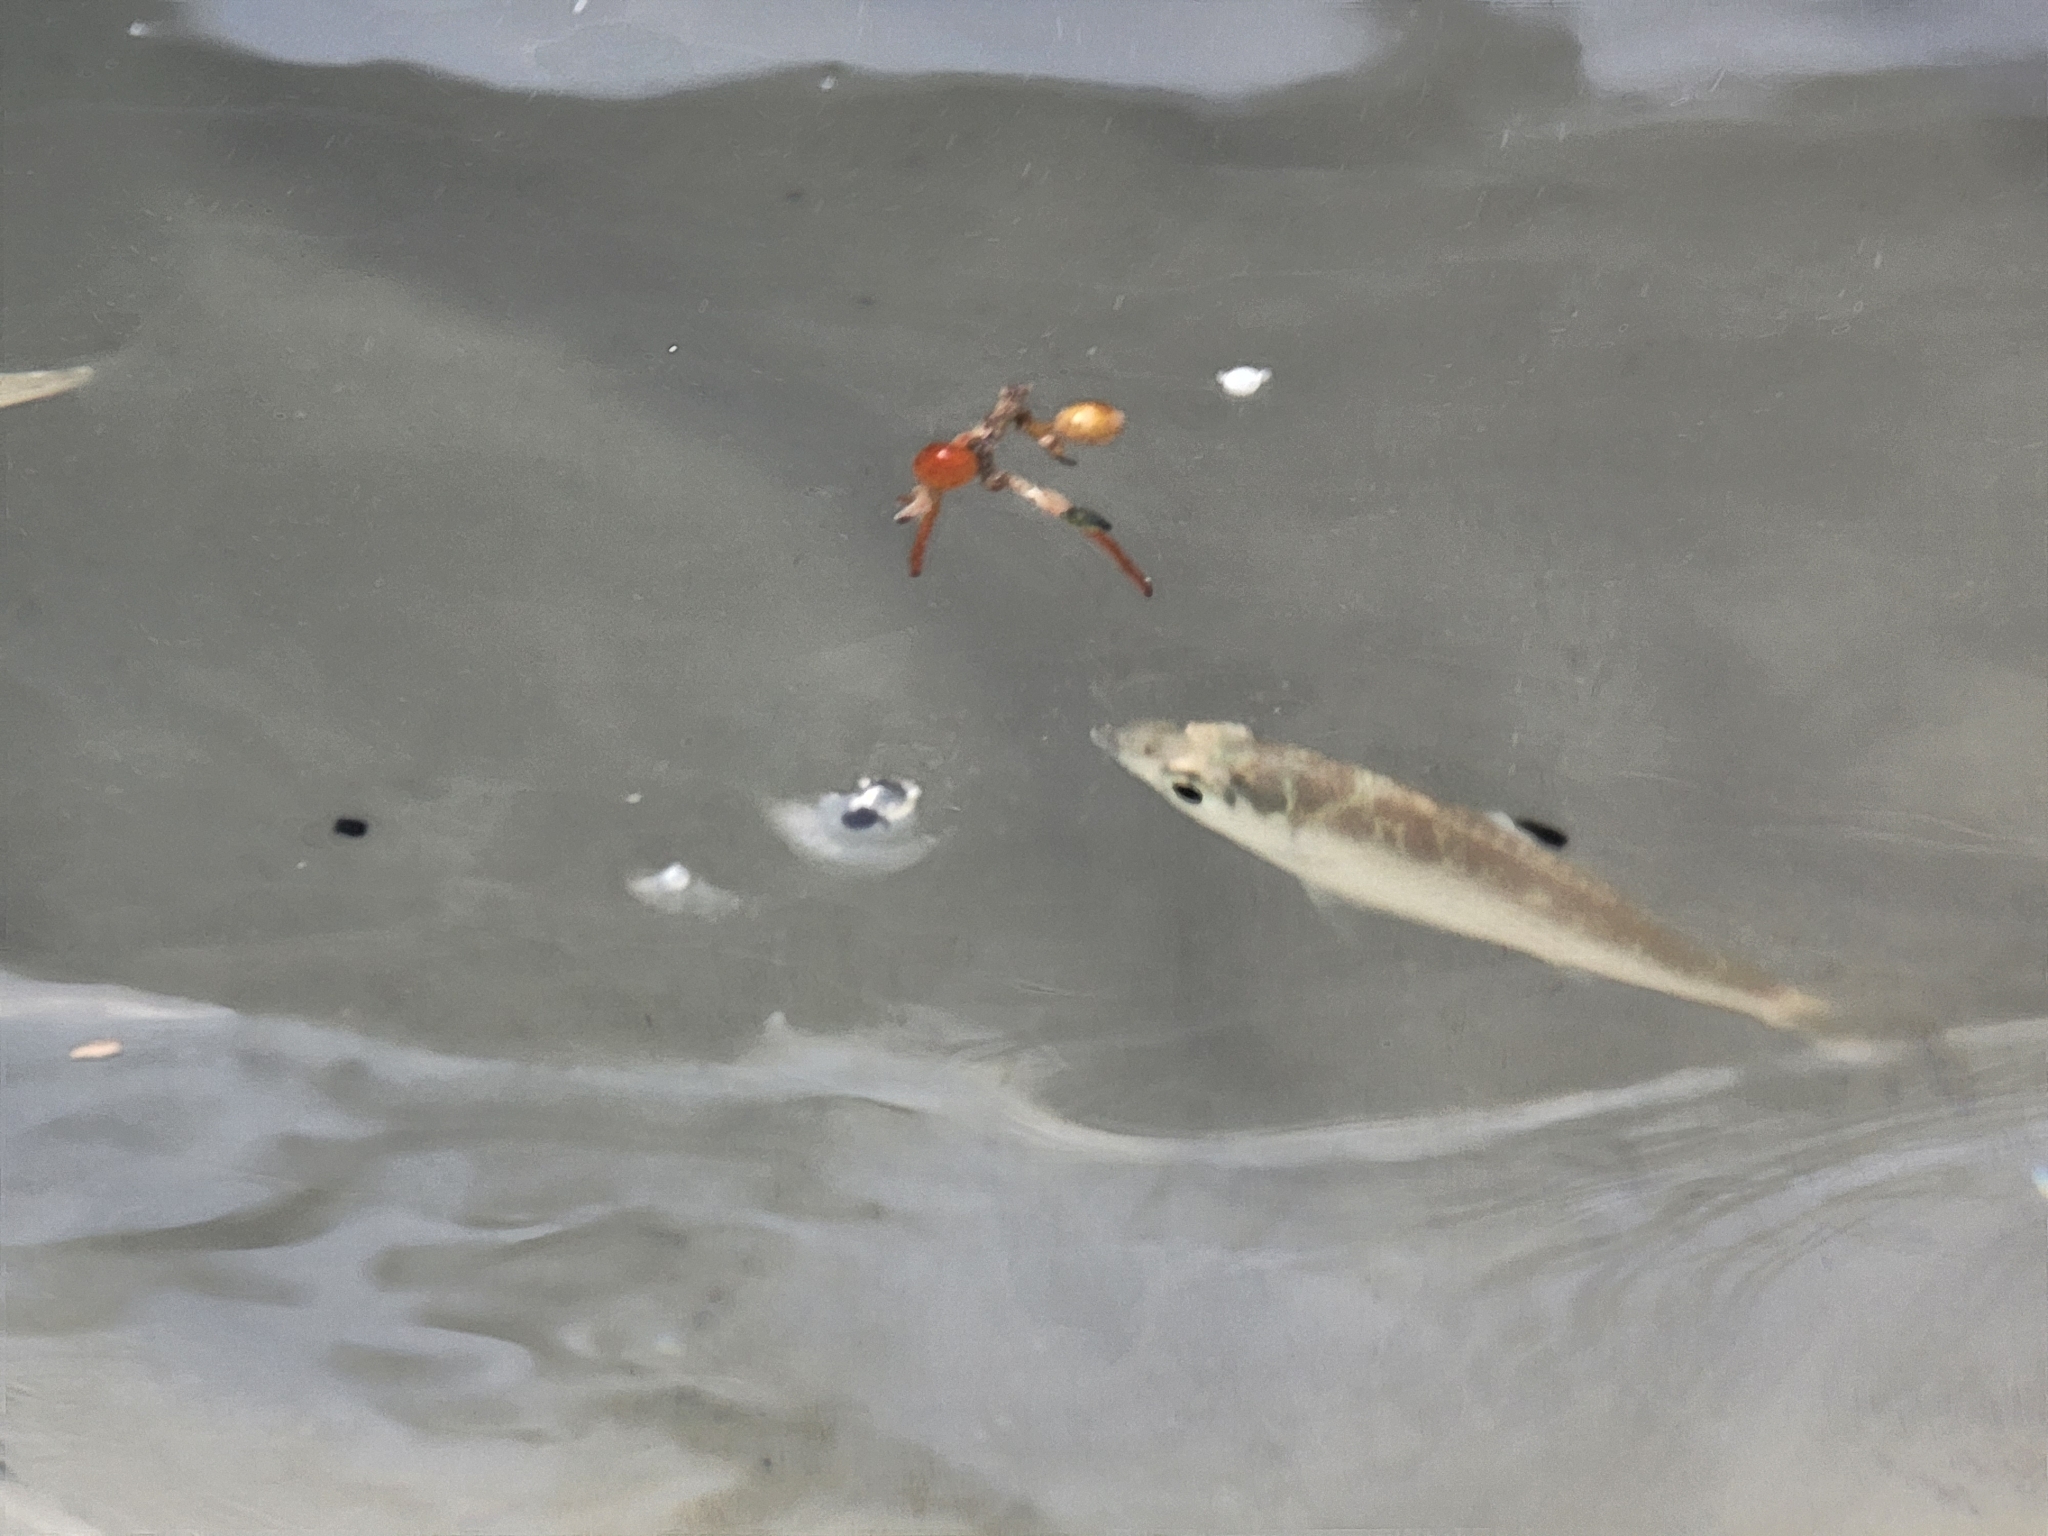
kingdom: Animalia
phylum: Chordata
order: Perciformes
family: Gerreidae
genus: Eucinostomus
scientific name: Eucinostomus melanopterus
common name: Flagfin mojarra
